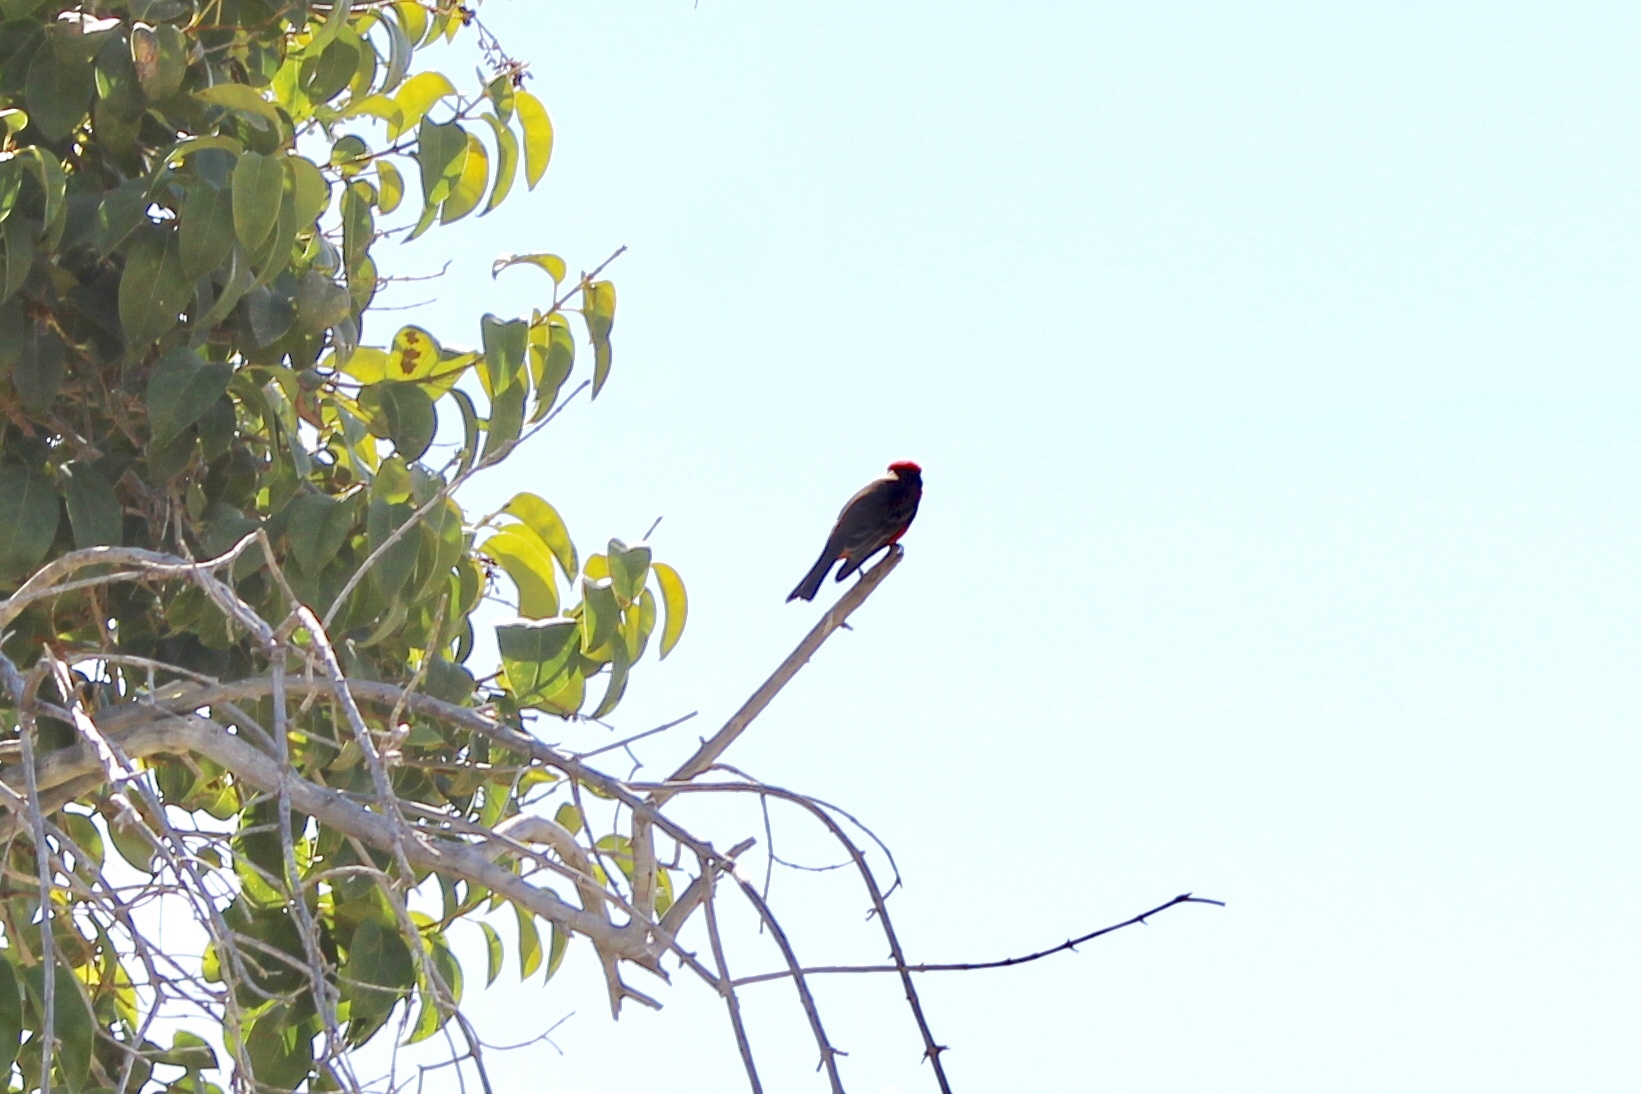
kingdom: Animalia
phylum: Chordata
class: Aves
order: Passeriformes
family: Tyrannidae
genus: Pyrocephalus
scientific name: Pyrocephalus rubinus
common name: Vermilion flycatcher
